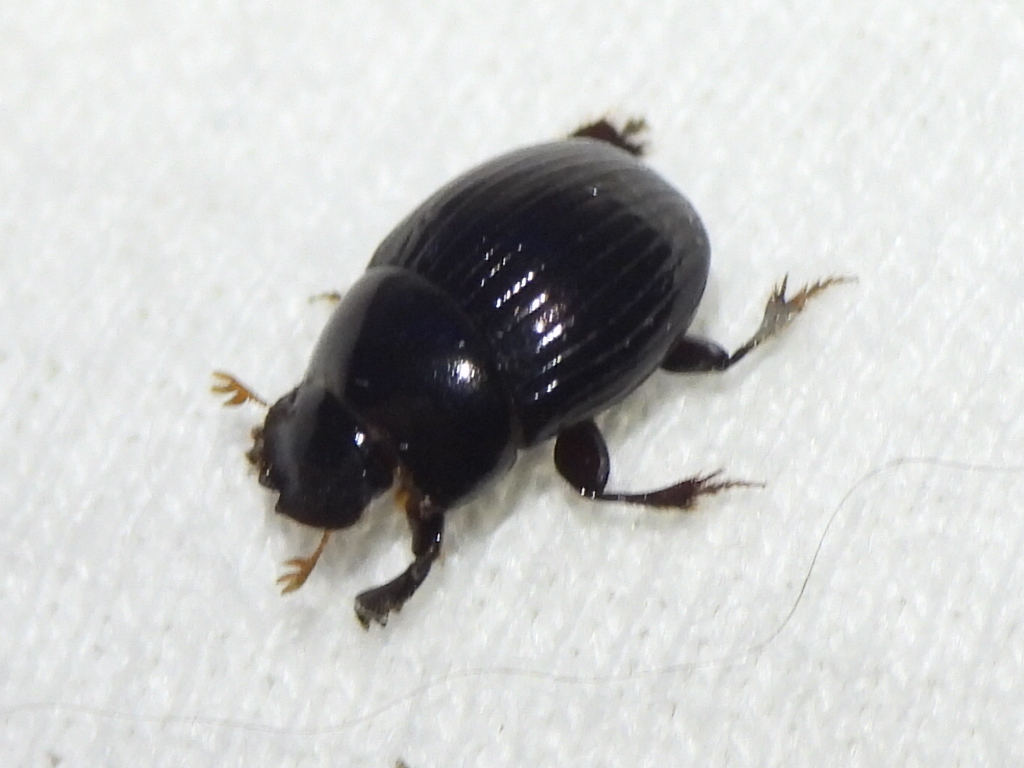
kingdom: Animalia
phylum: Arthropoda
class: Insecta
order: Coleoptera
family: Scarabaeidae
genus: Pseudocanthon
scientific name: Pseudocanthon perplexus
